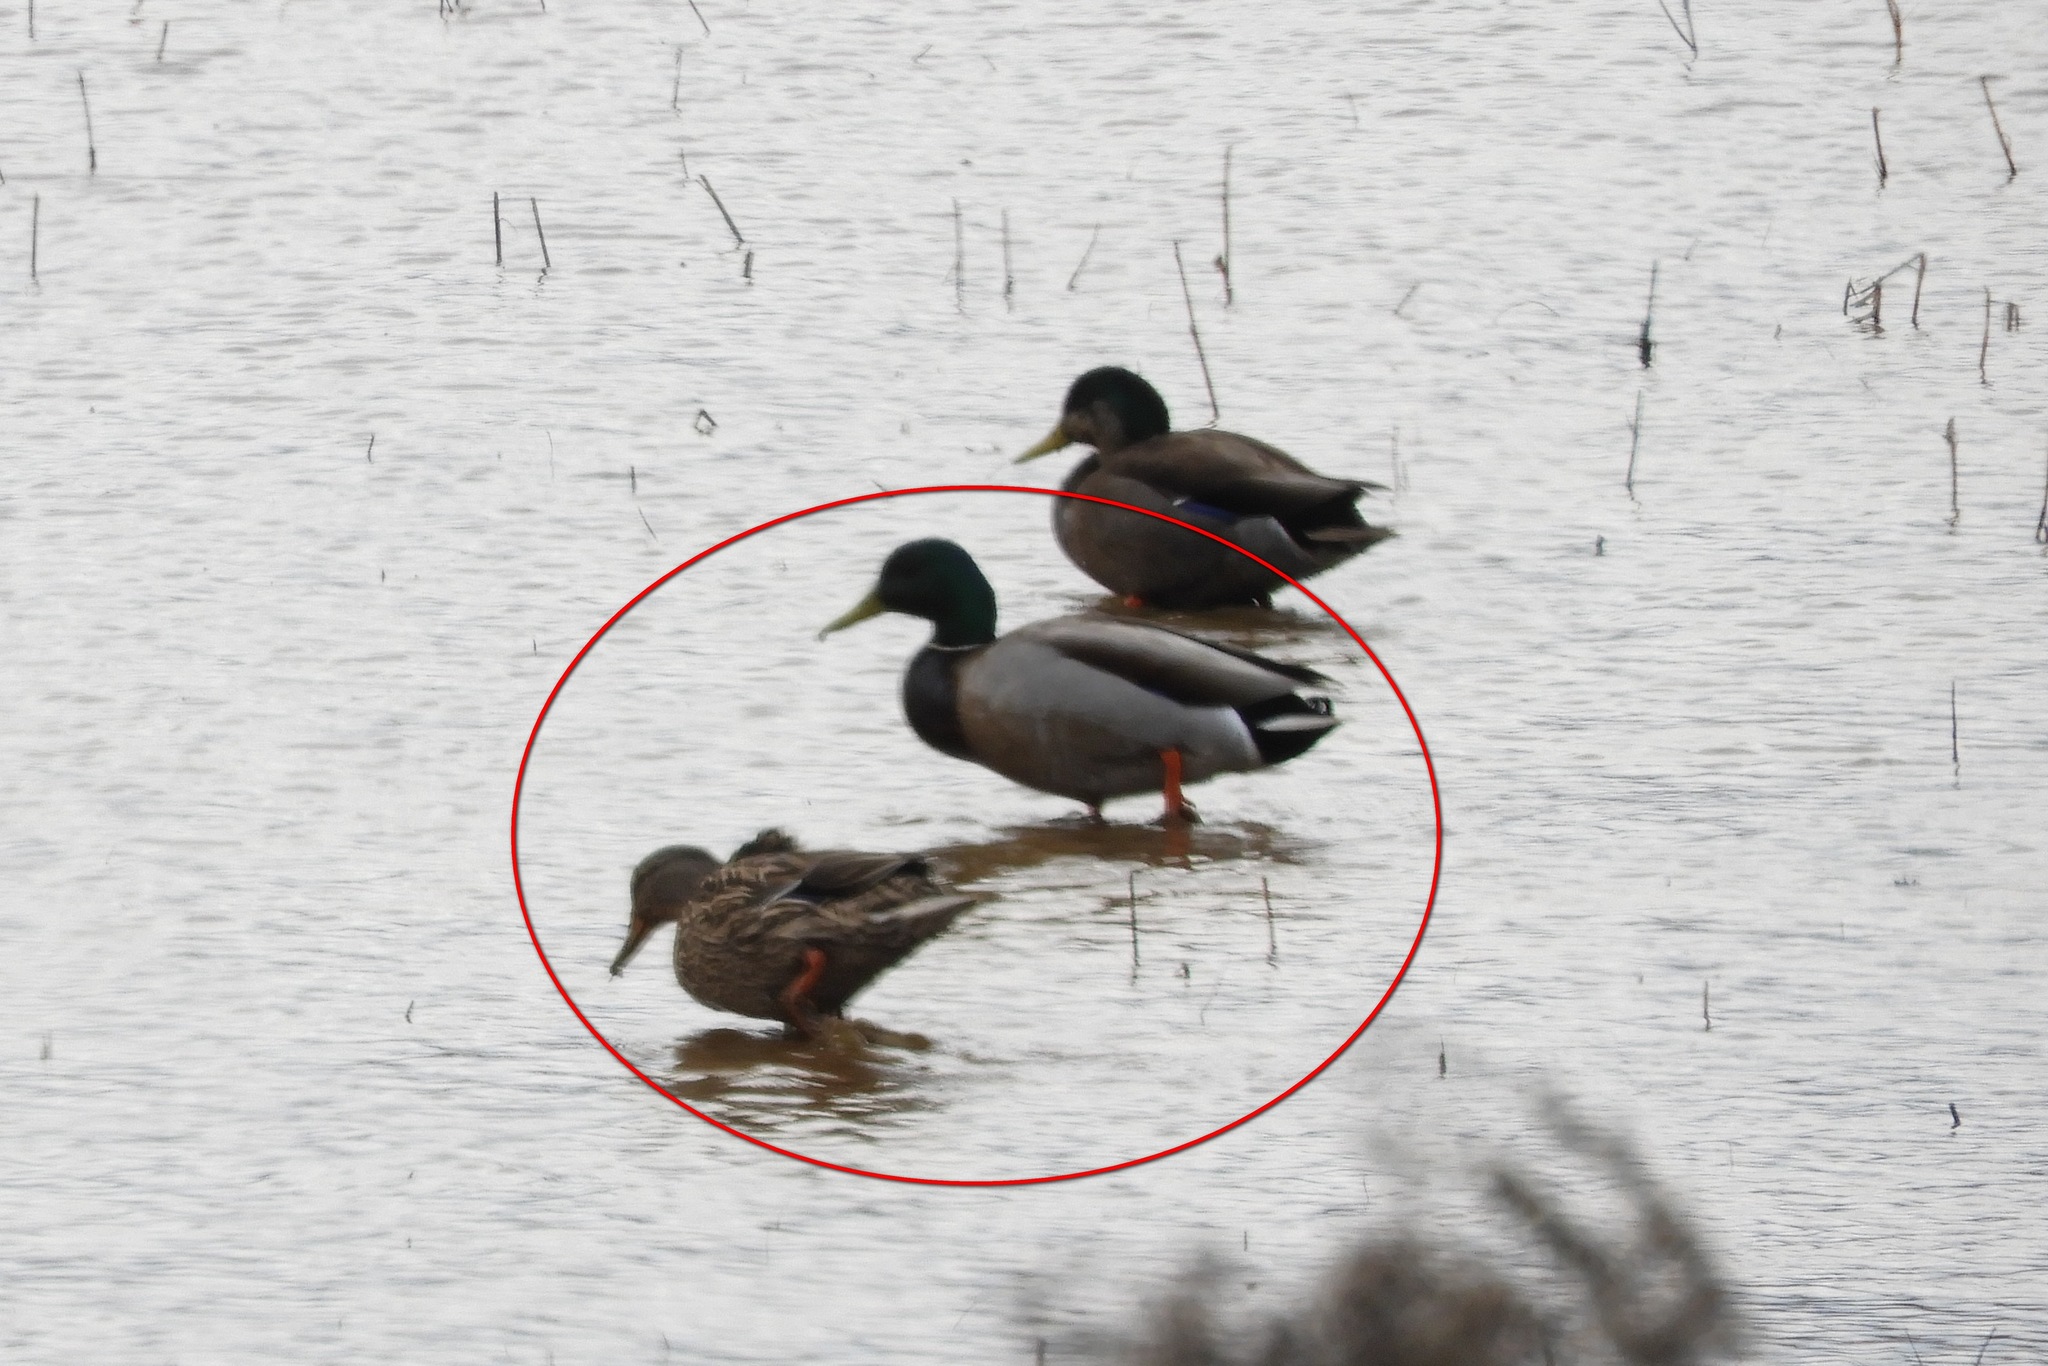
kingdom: Animalia
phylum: Chordata
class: Aves
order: Anseriformes
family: Anatidae
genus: Anas
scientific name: Anas platyrhynchos
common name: Mallard
